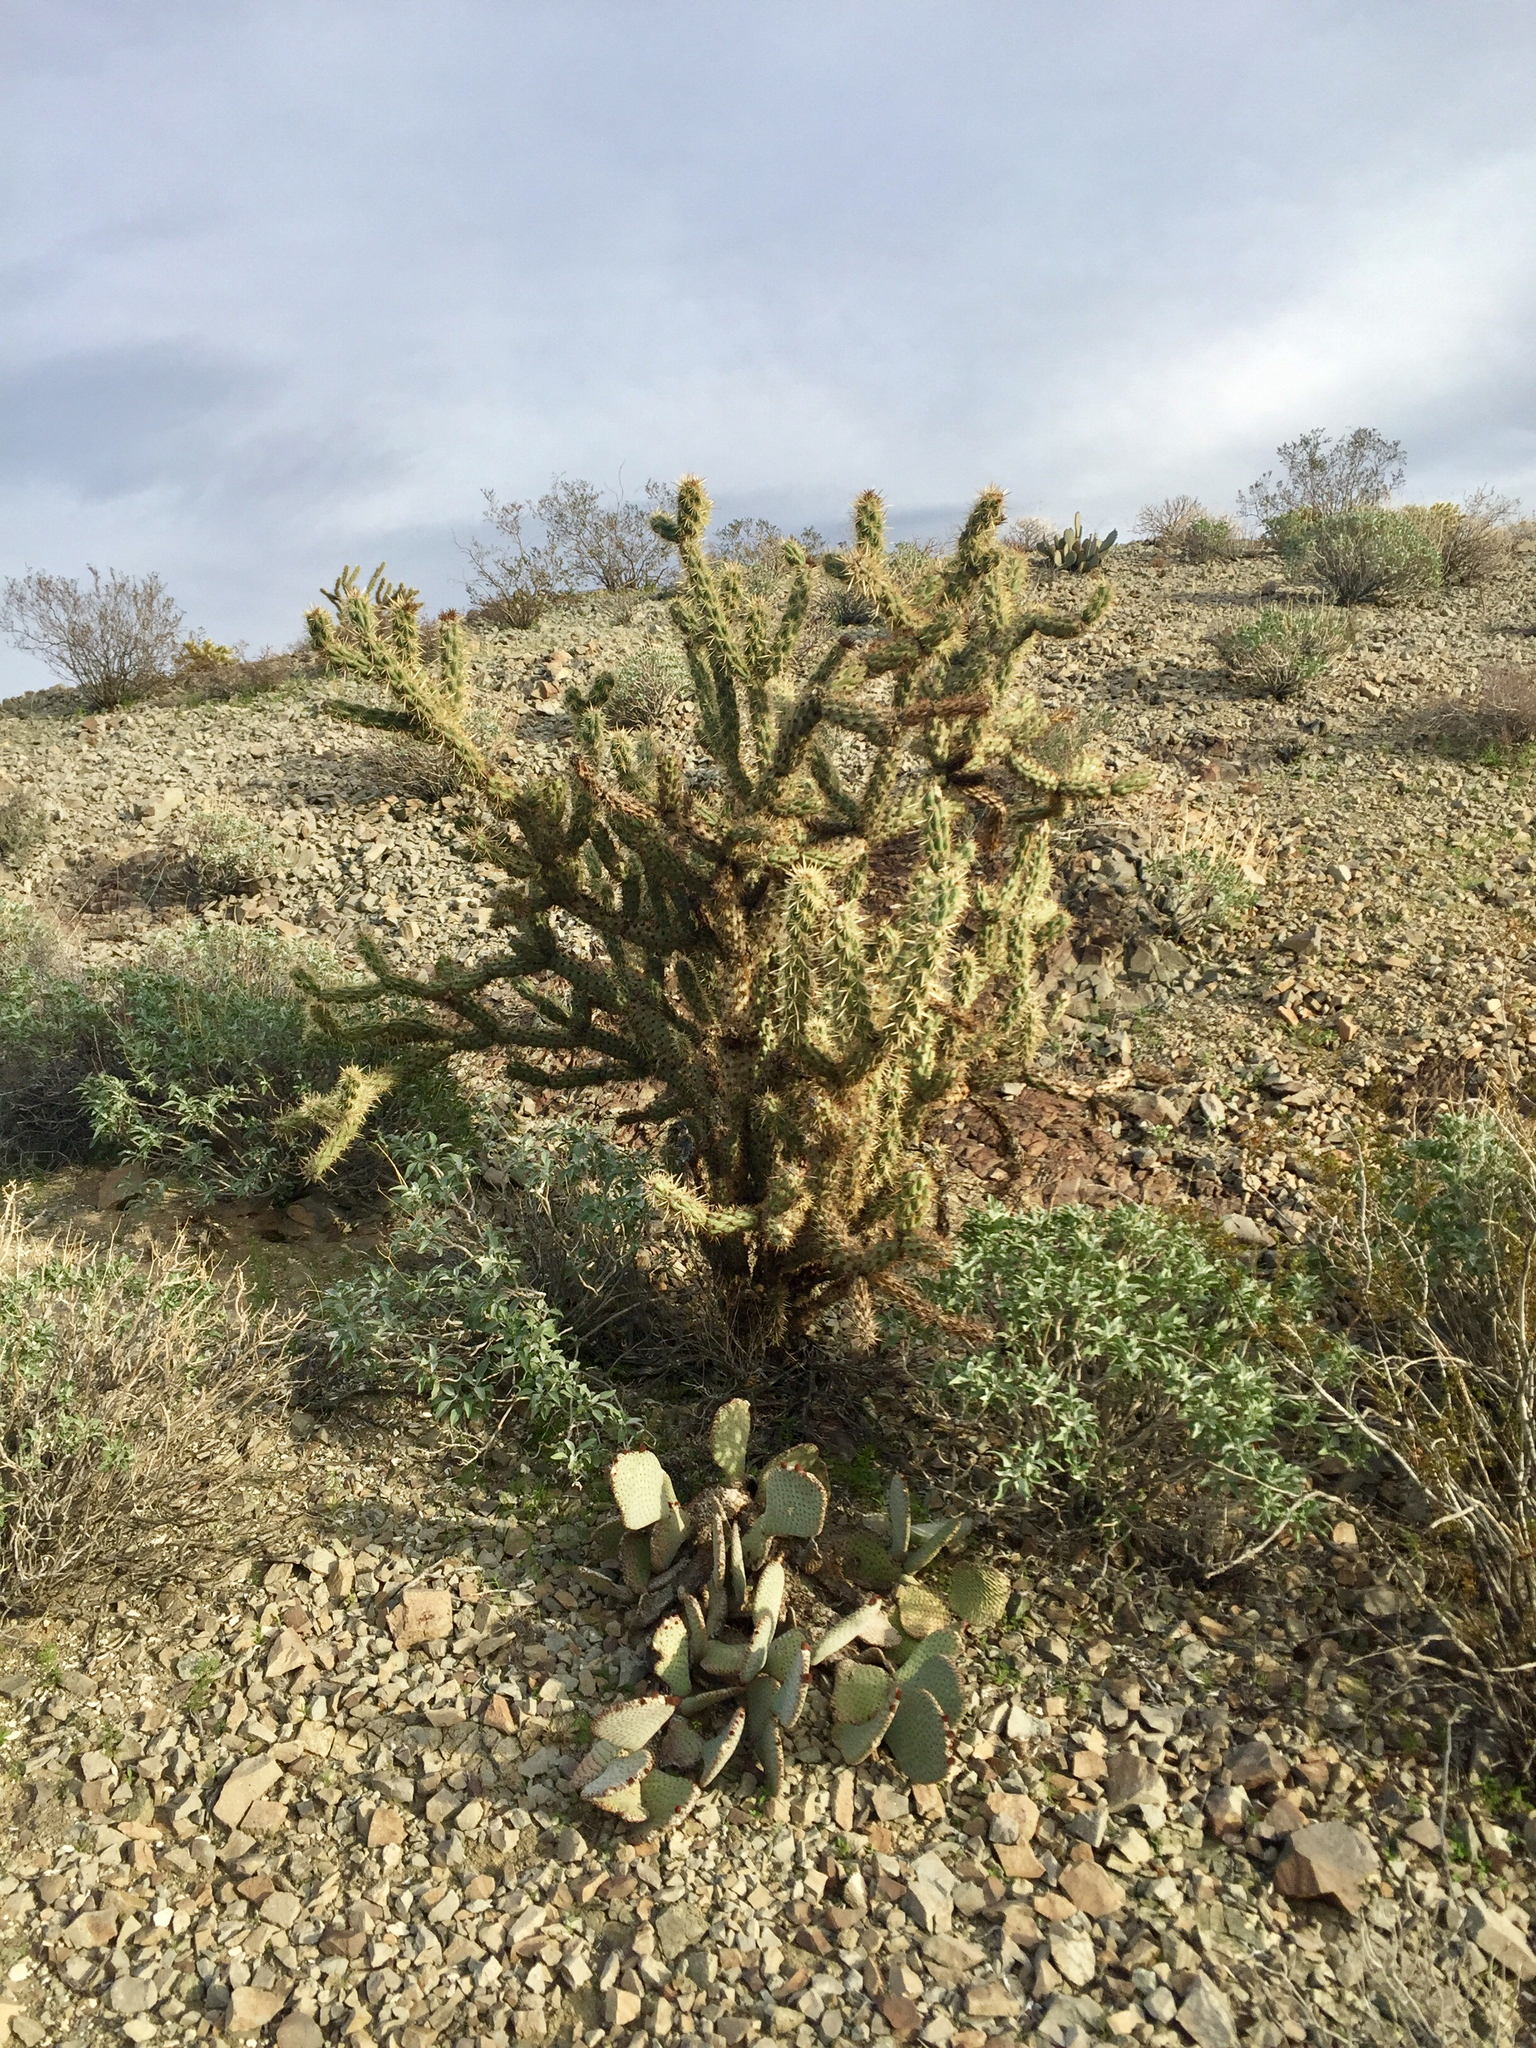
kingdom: Plantae
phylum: Tracheophyta
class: Magnoliopsida
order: Caryophyllales
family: Cactaceae
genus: Cylindropuntia
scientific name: Cylindropuntia acanthocarpa
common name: Buckhorn cholla
